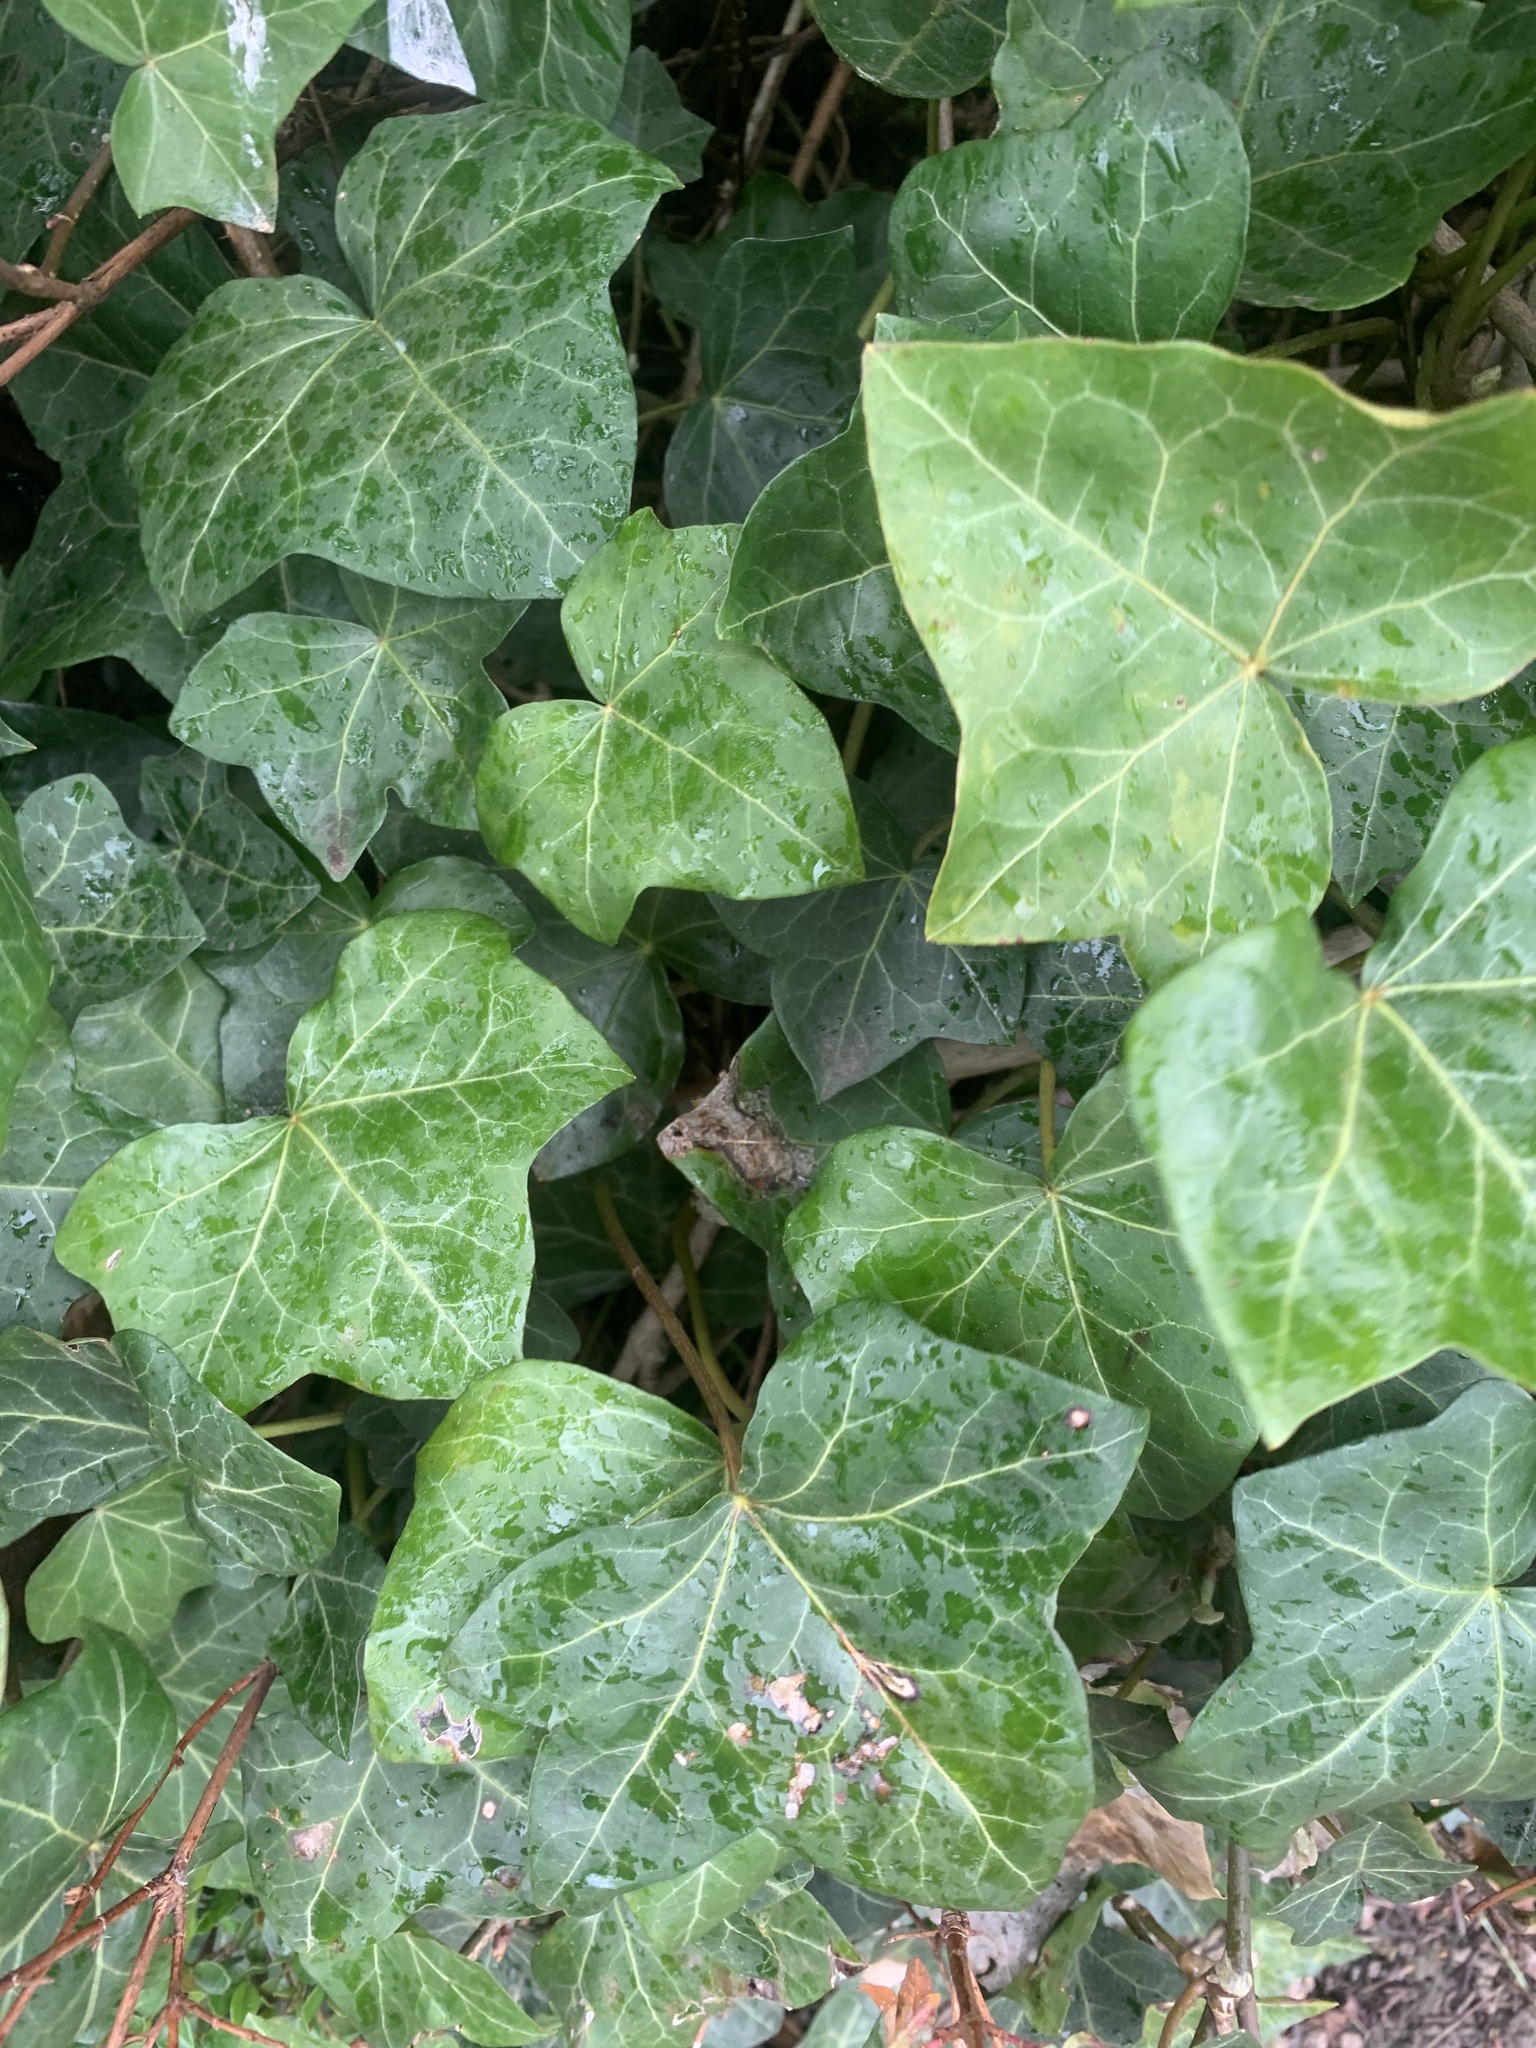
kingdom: Plantae
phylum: Tracheophyta
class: Magnoliopsida
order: Apiales
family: Araliaceae
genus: Hedera
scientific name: Hedera helix
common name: Ivy
